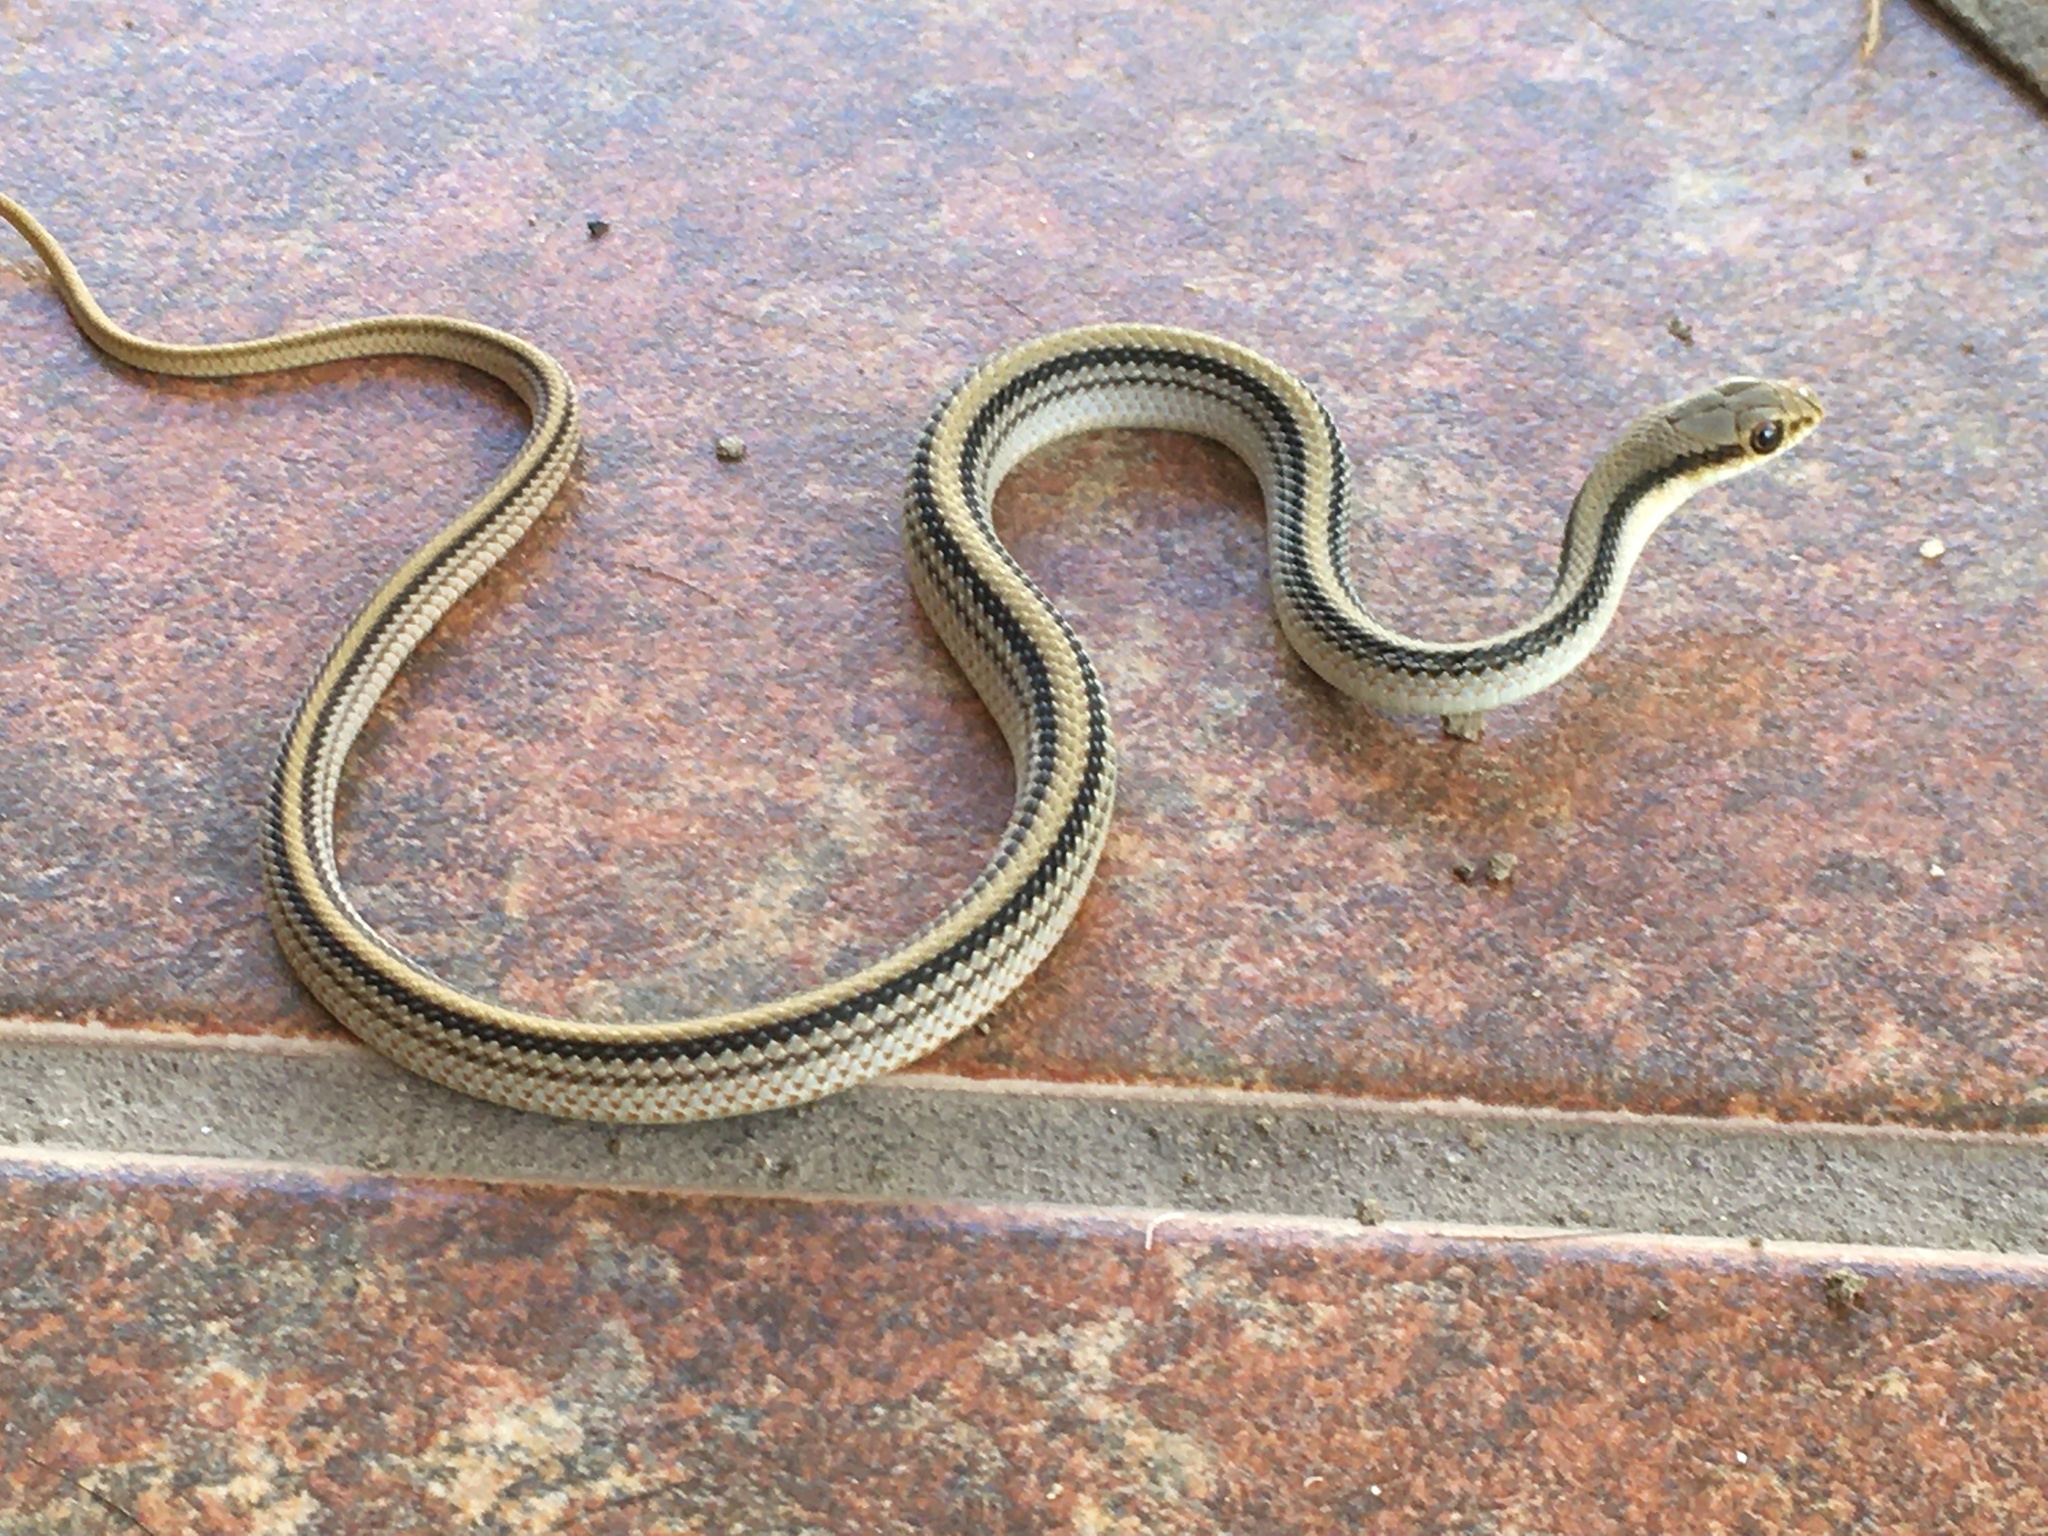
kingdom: Animalia
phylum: Chordata
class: Squamata
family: Colubridae
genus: Salvadora
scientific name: Salvadora hexalepis
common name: Western patchnose snake
